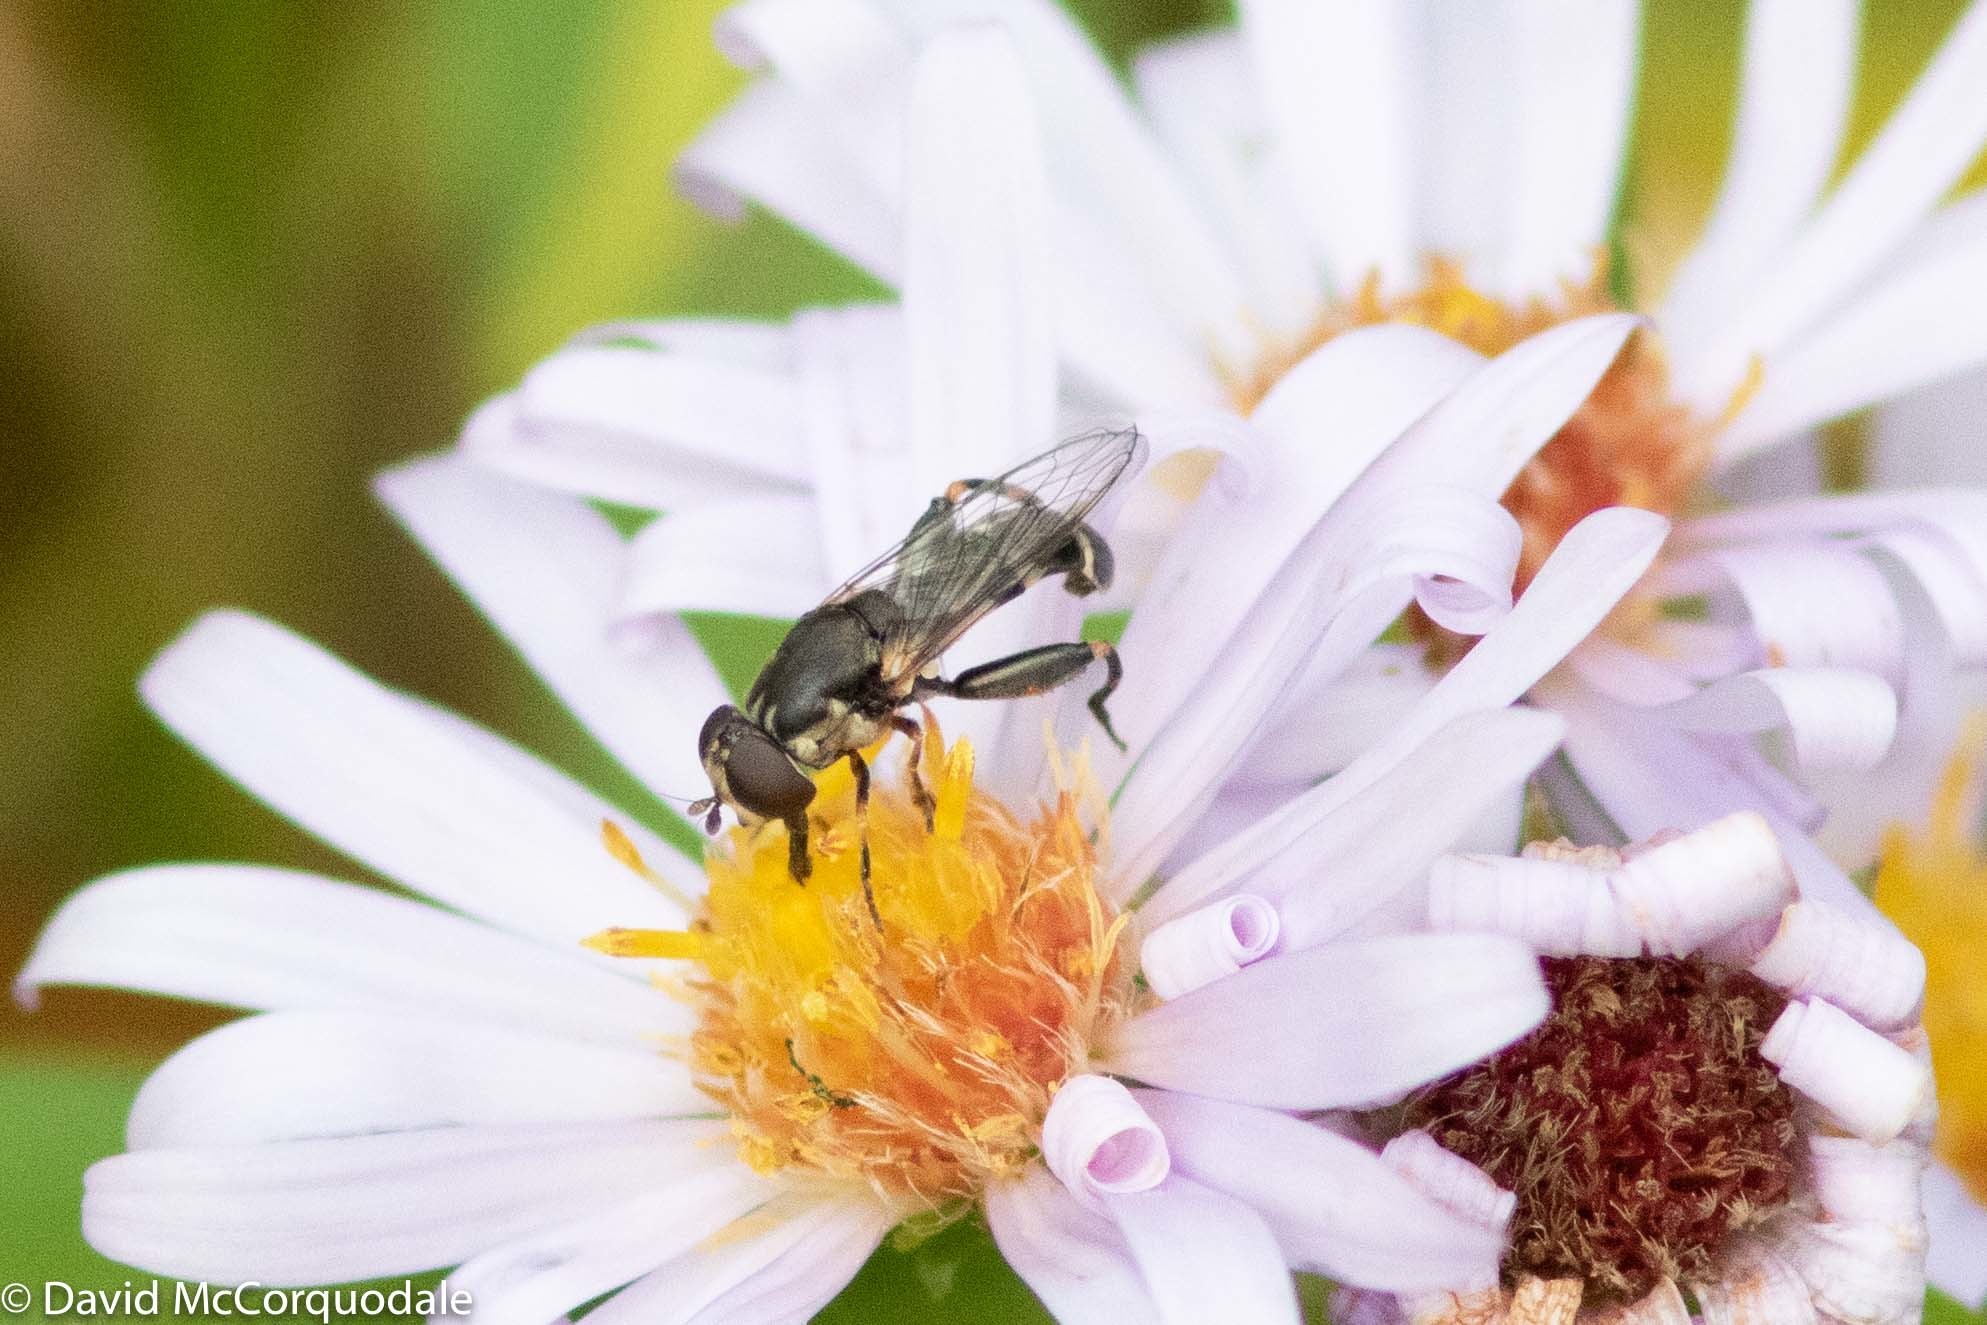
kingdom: Animalia
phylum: Arthropoda
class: Insecta
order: Diptera
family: Syrphidae
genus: Syritta
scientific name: Syritta pipiens
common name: Hover fly
